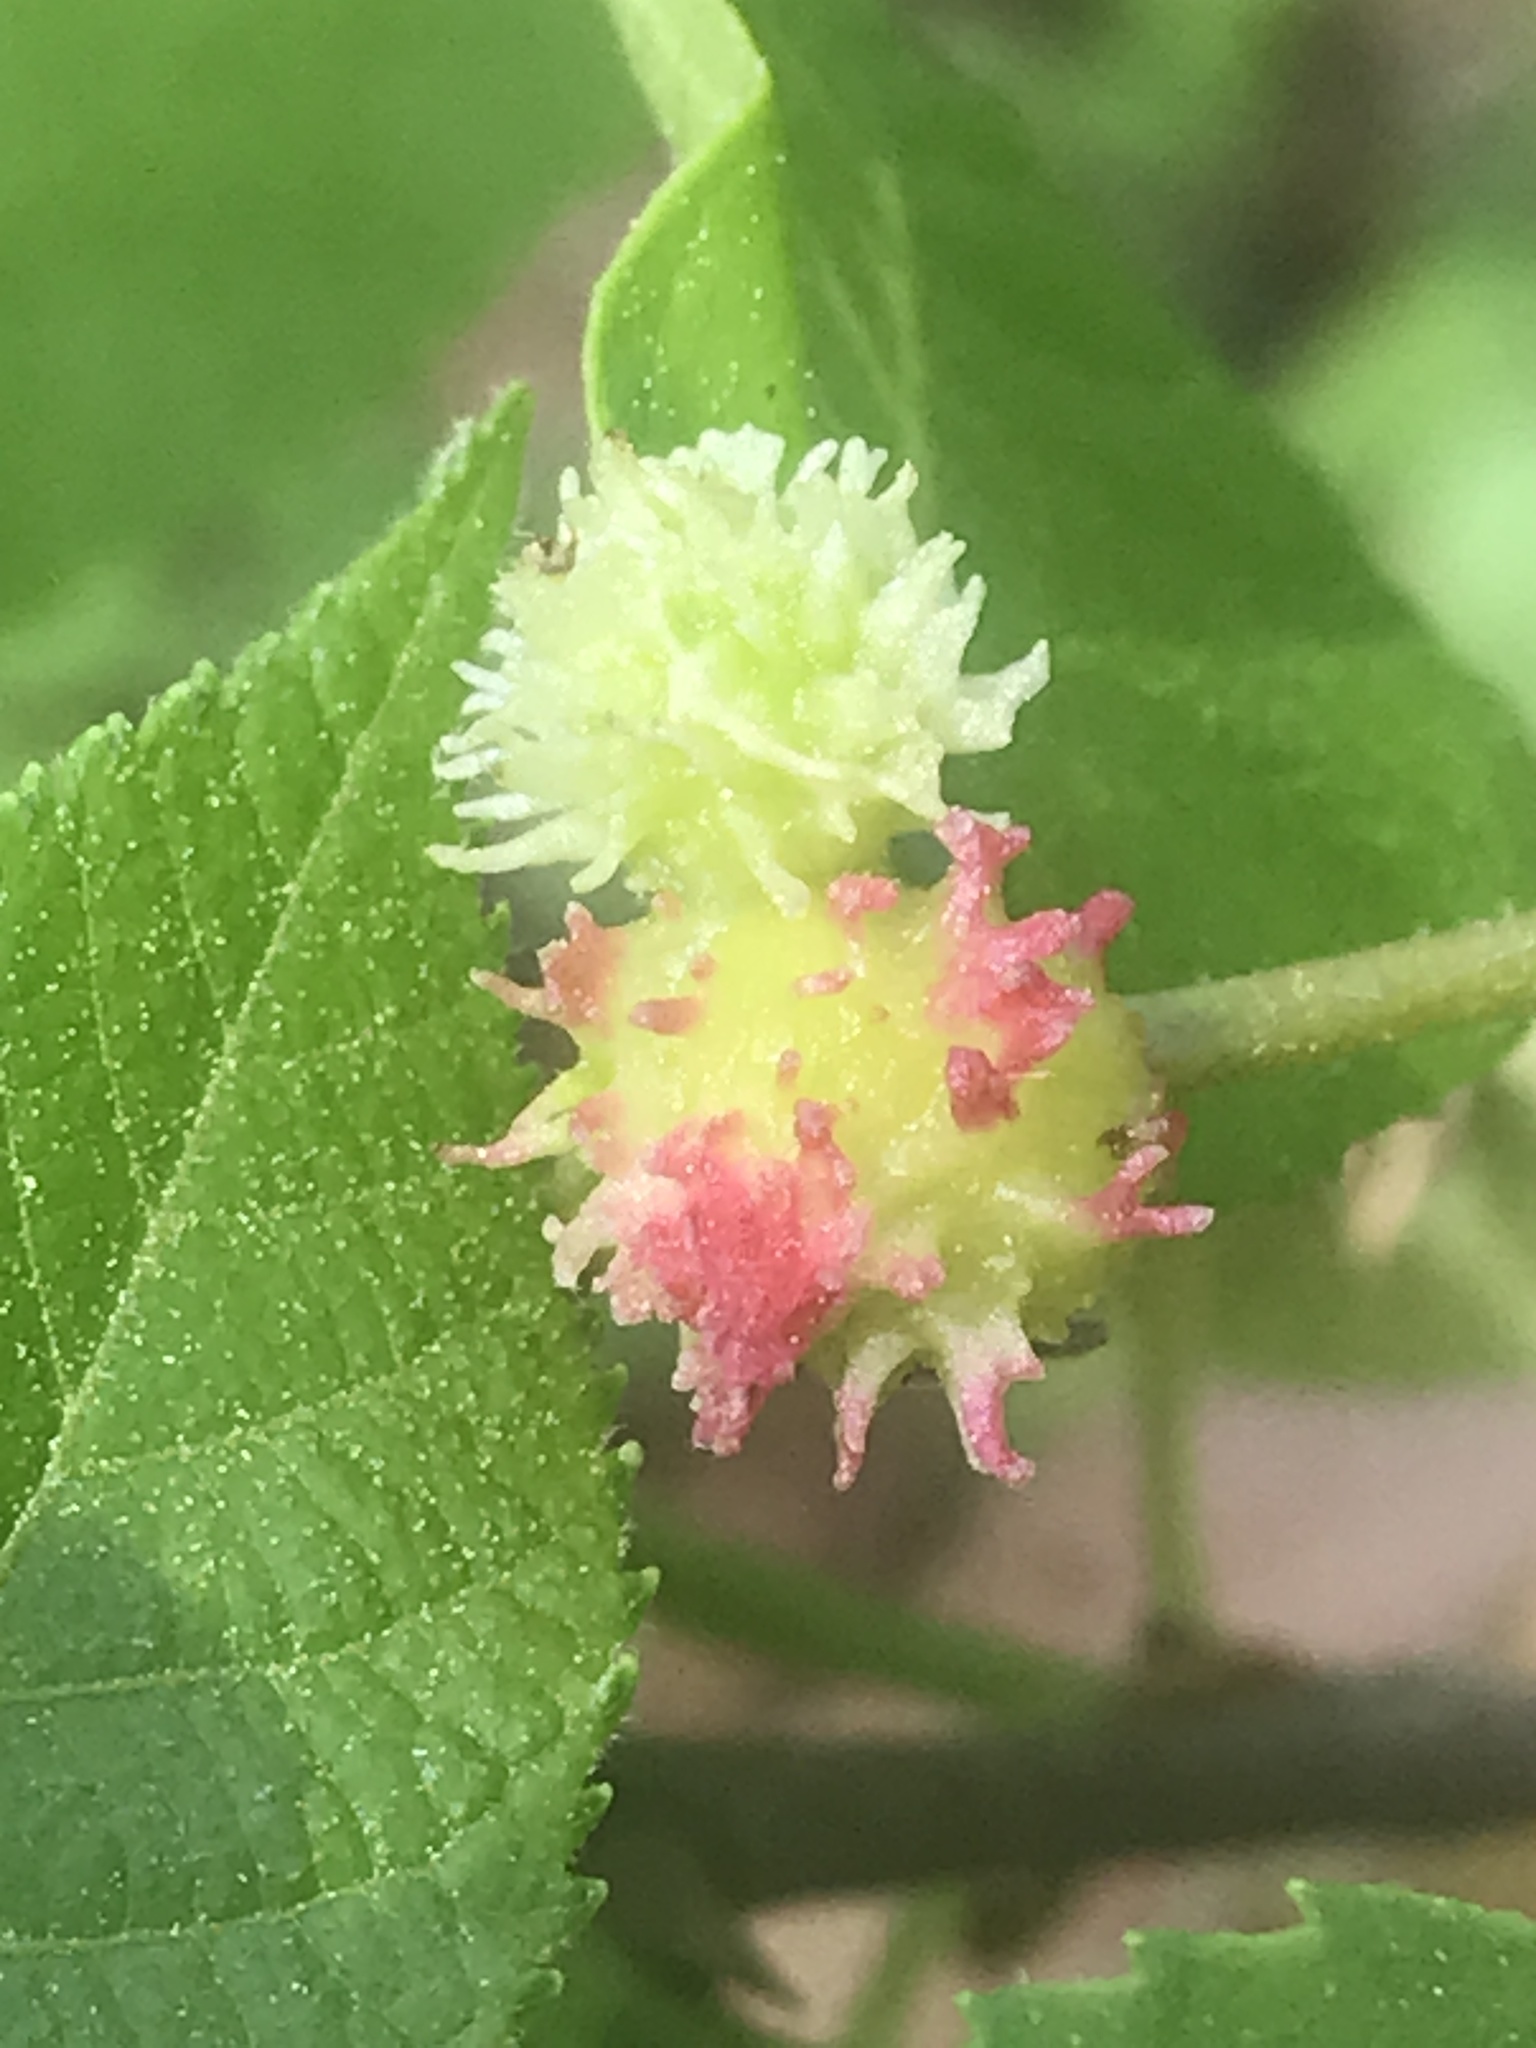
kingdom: Animalia
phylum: Arthropoda
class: Insecta
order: Hemiptera
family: Phylloxeridae
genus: Phylloxera
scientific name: Phylloxera spinosa
